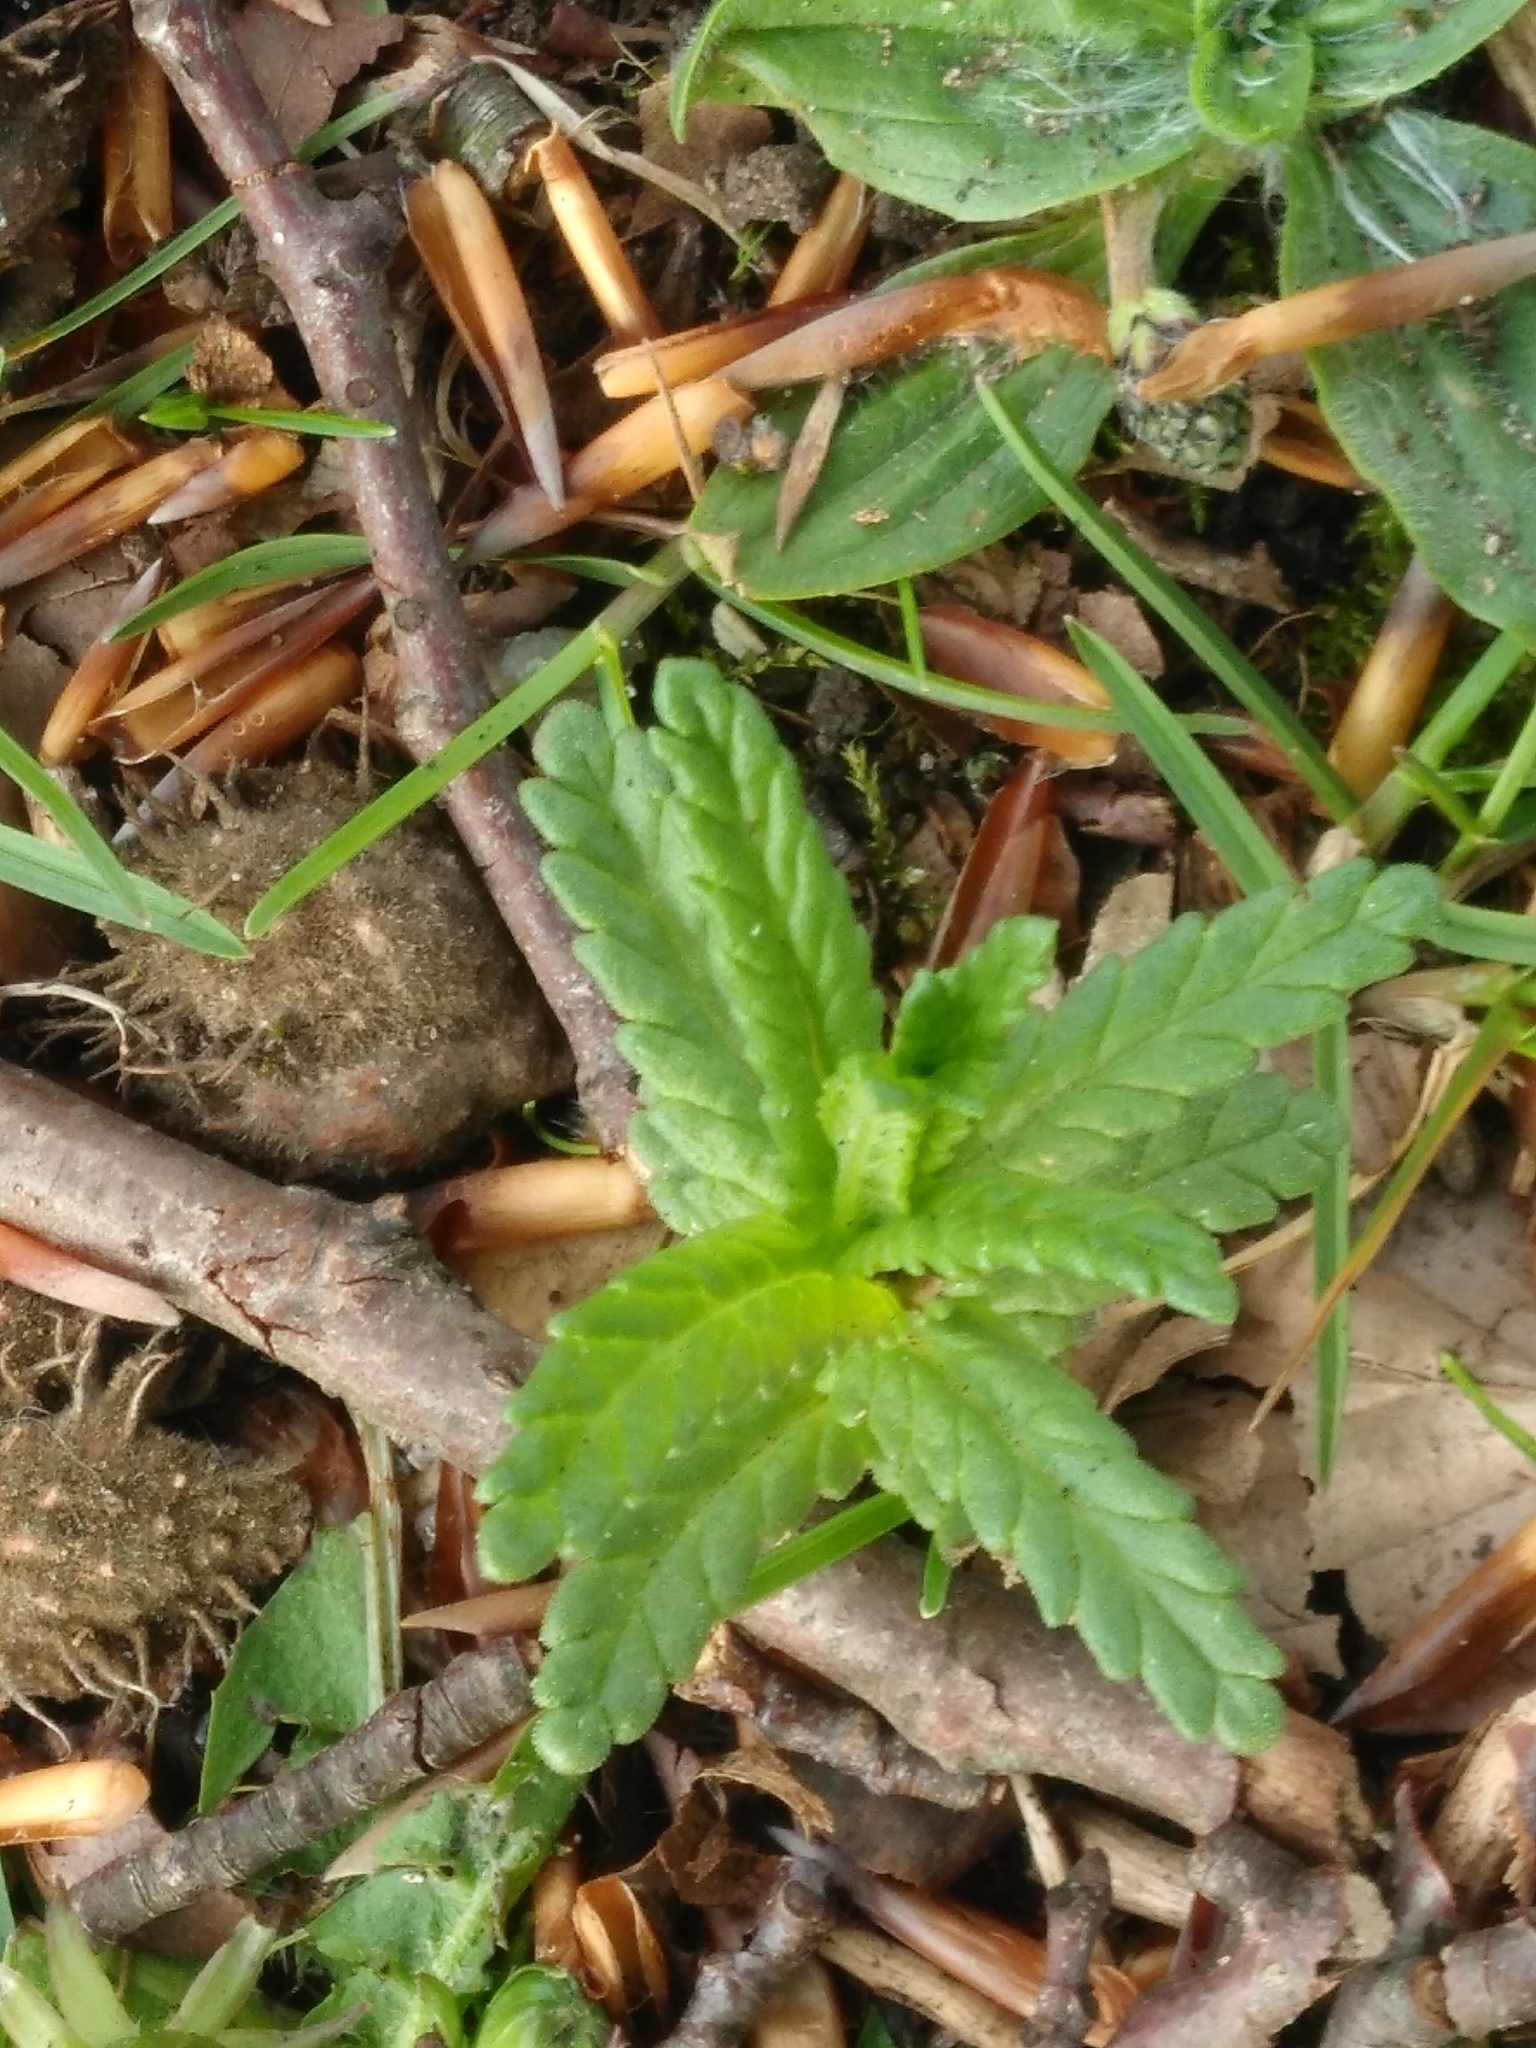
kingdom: Plantae
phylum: Tracheophyta
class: Magnoliopsida
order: Lamiales
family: Orobanchaceae
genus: Rhinanthus
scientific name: Rhinanthus minor
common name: Yellow-rattle
